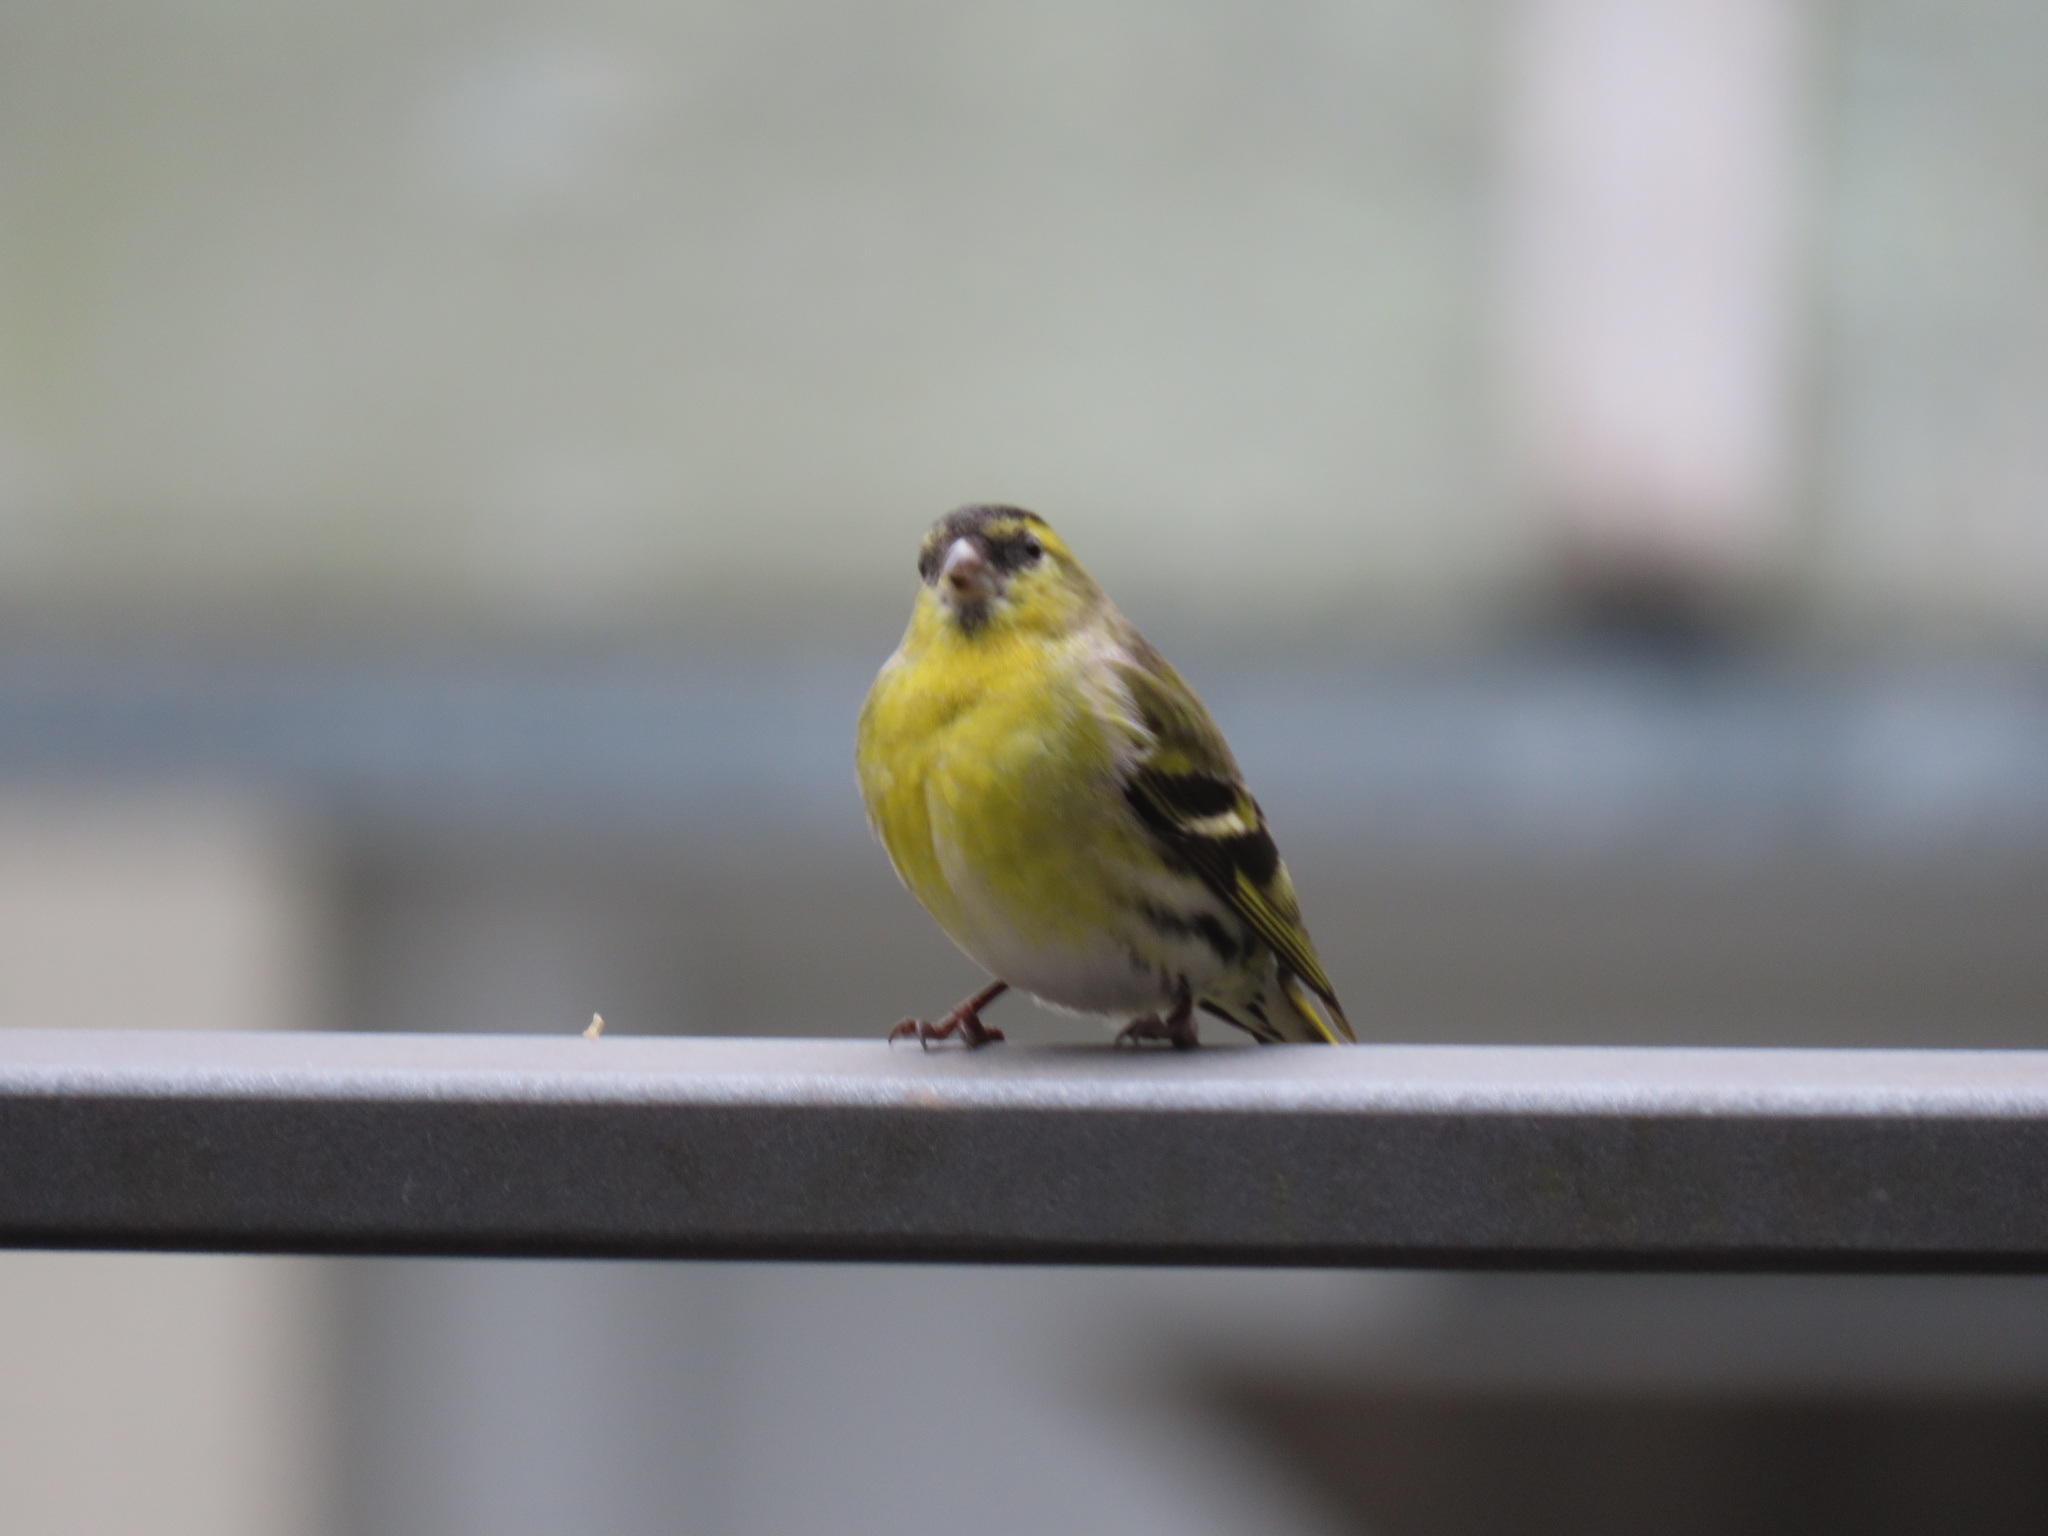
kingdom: Animalia
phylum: Chordata
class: Aves
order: Passeriformes
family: Fringillidae
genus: Spinus
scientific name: Spinus spinus
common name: Eurasian siskin
